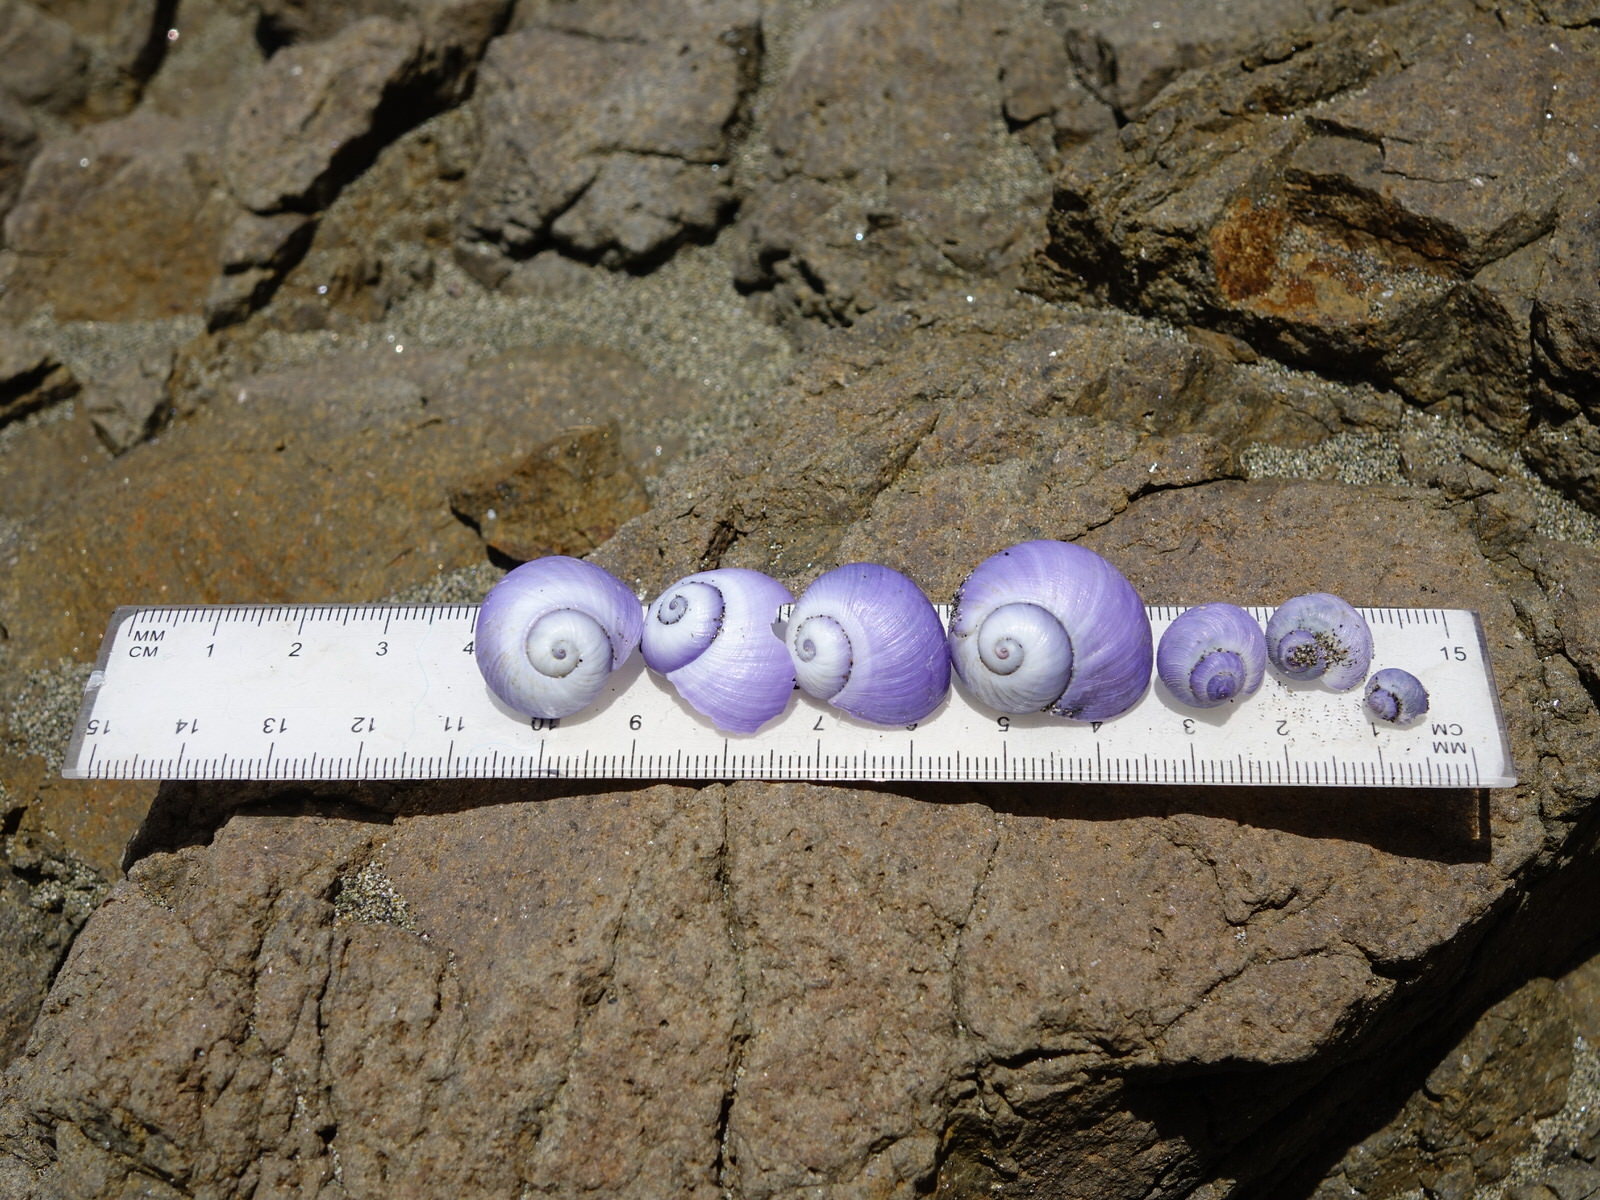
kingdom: Animalia
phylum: Mollusca
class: Gastropoda
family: Epitoniidae
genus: Janthina
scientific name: Janthina janthina
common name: Common janthina
